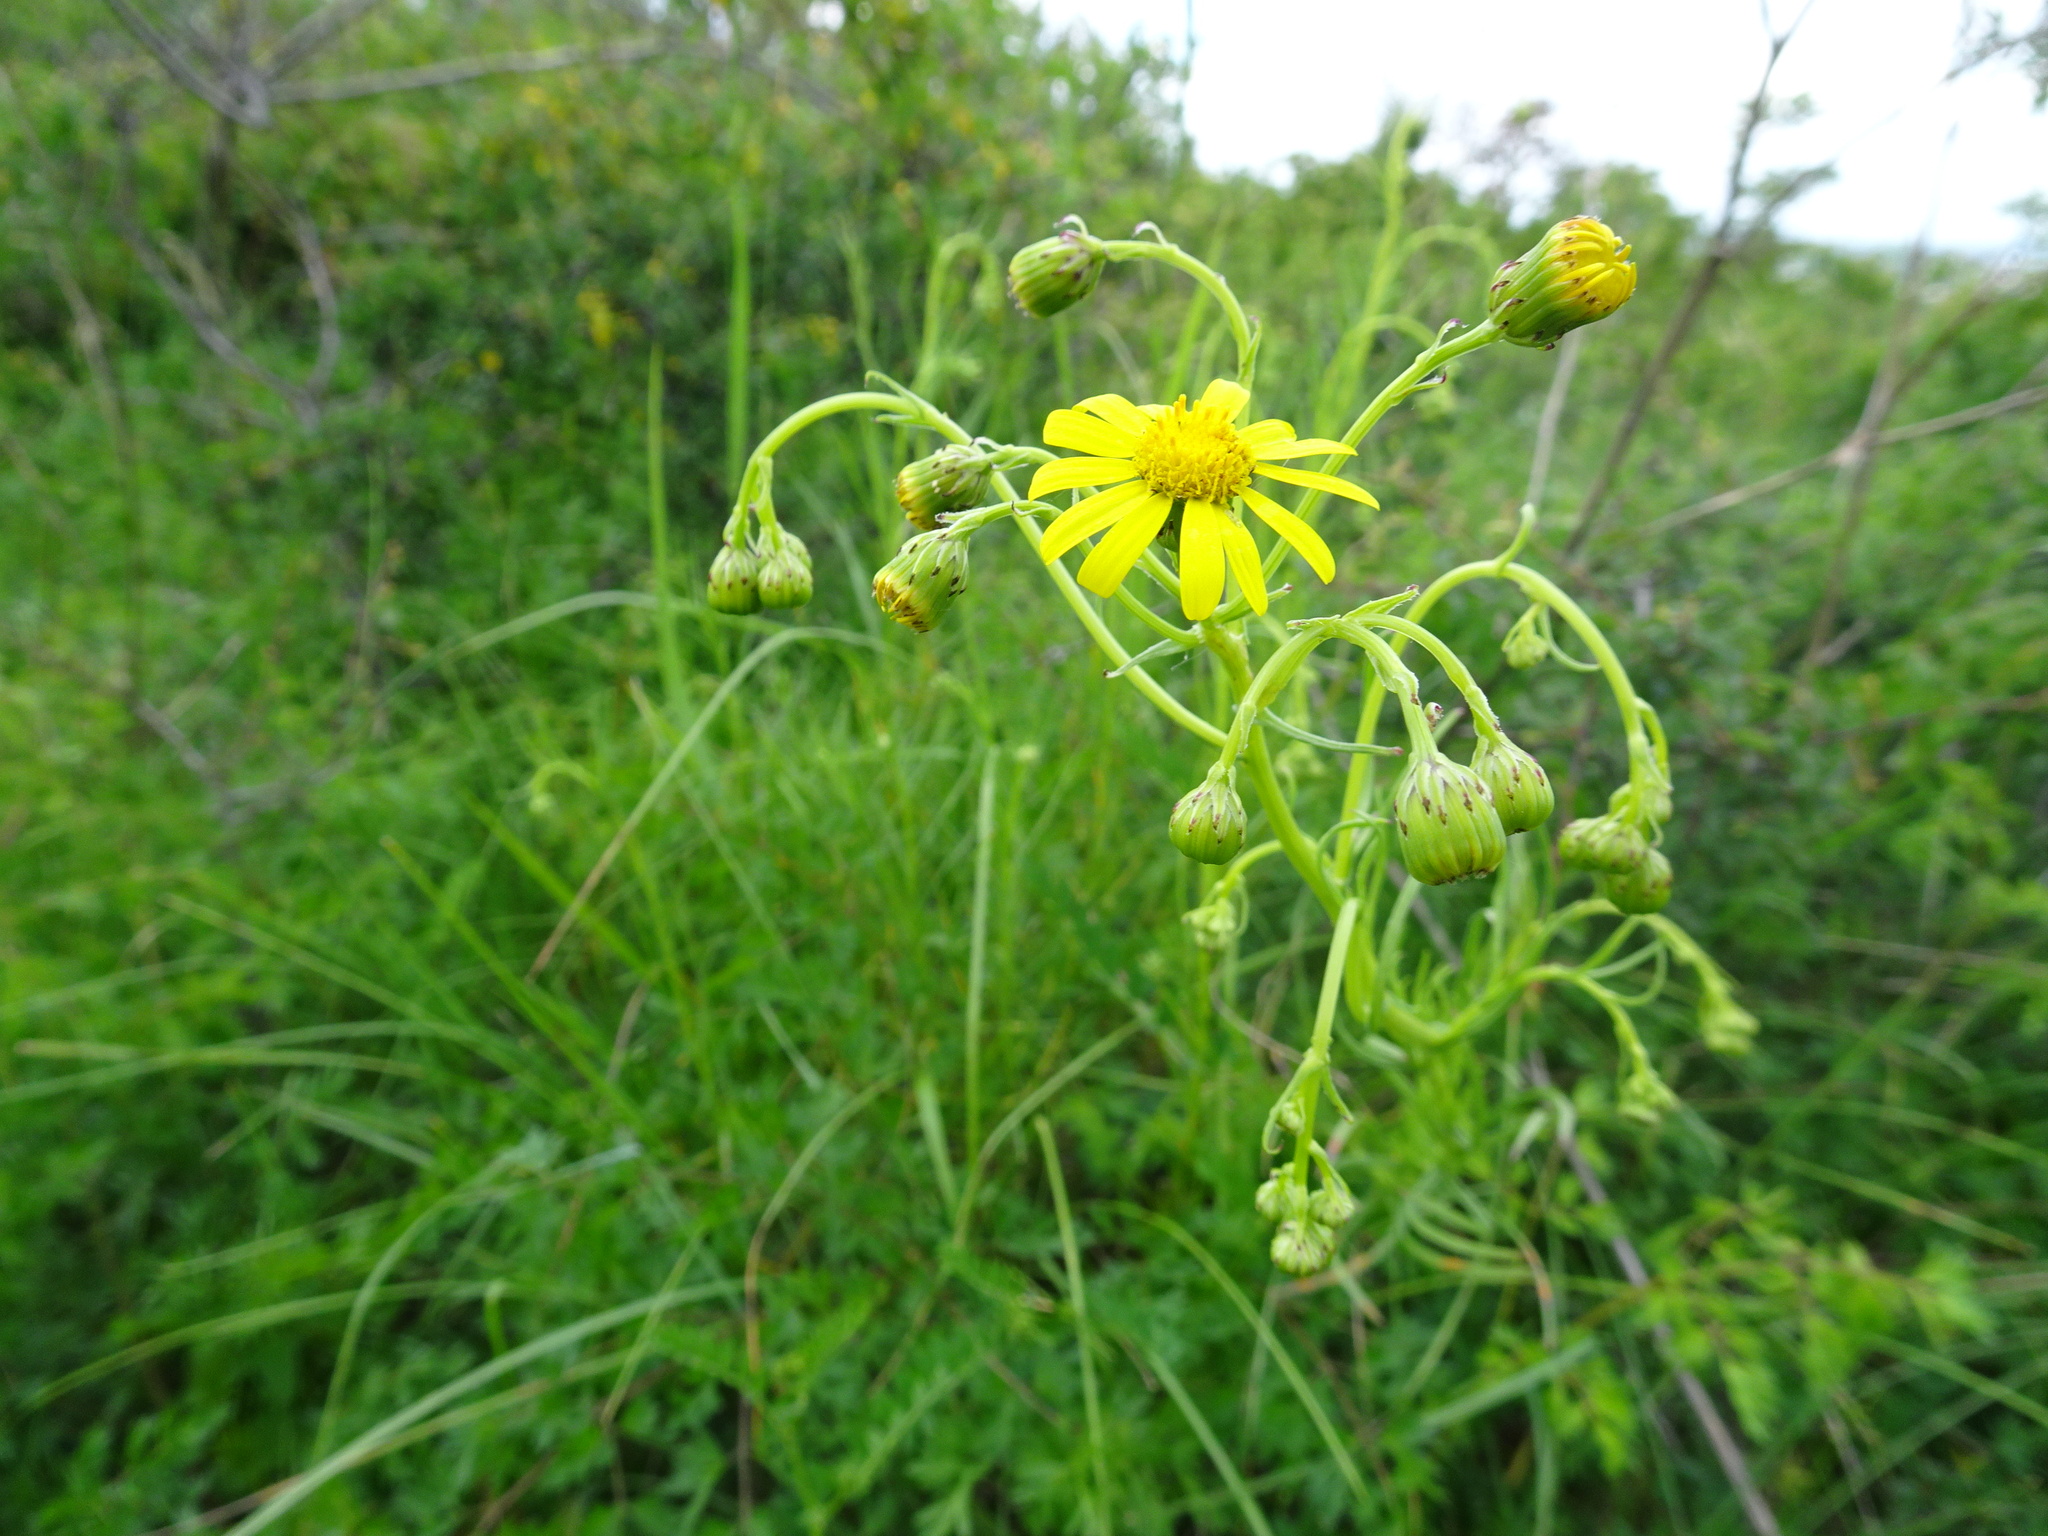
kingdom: Plantae
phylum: Tracheophyta
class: Magnoliopsida
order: Asterales
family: Asteraceae
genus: Senecio
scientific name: Senecio inaequidens
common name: Narrow-leaved ragwort
